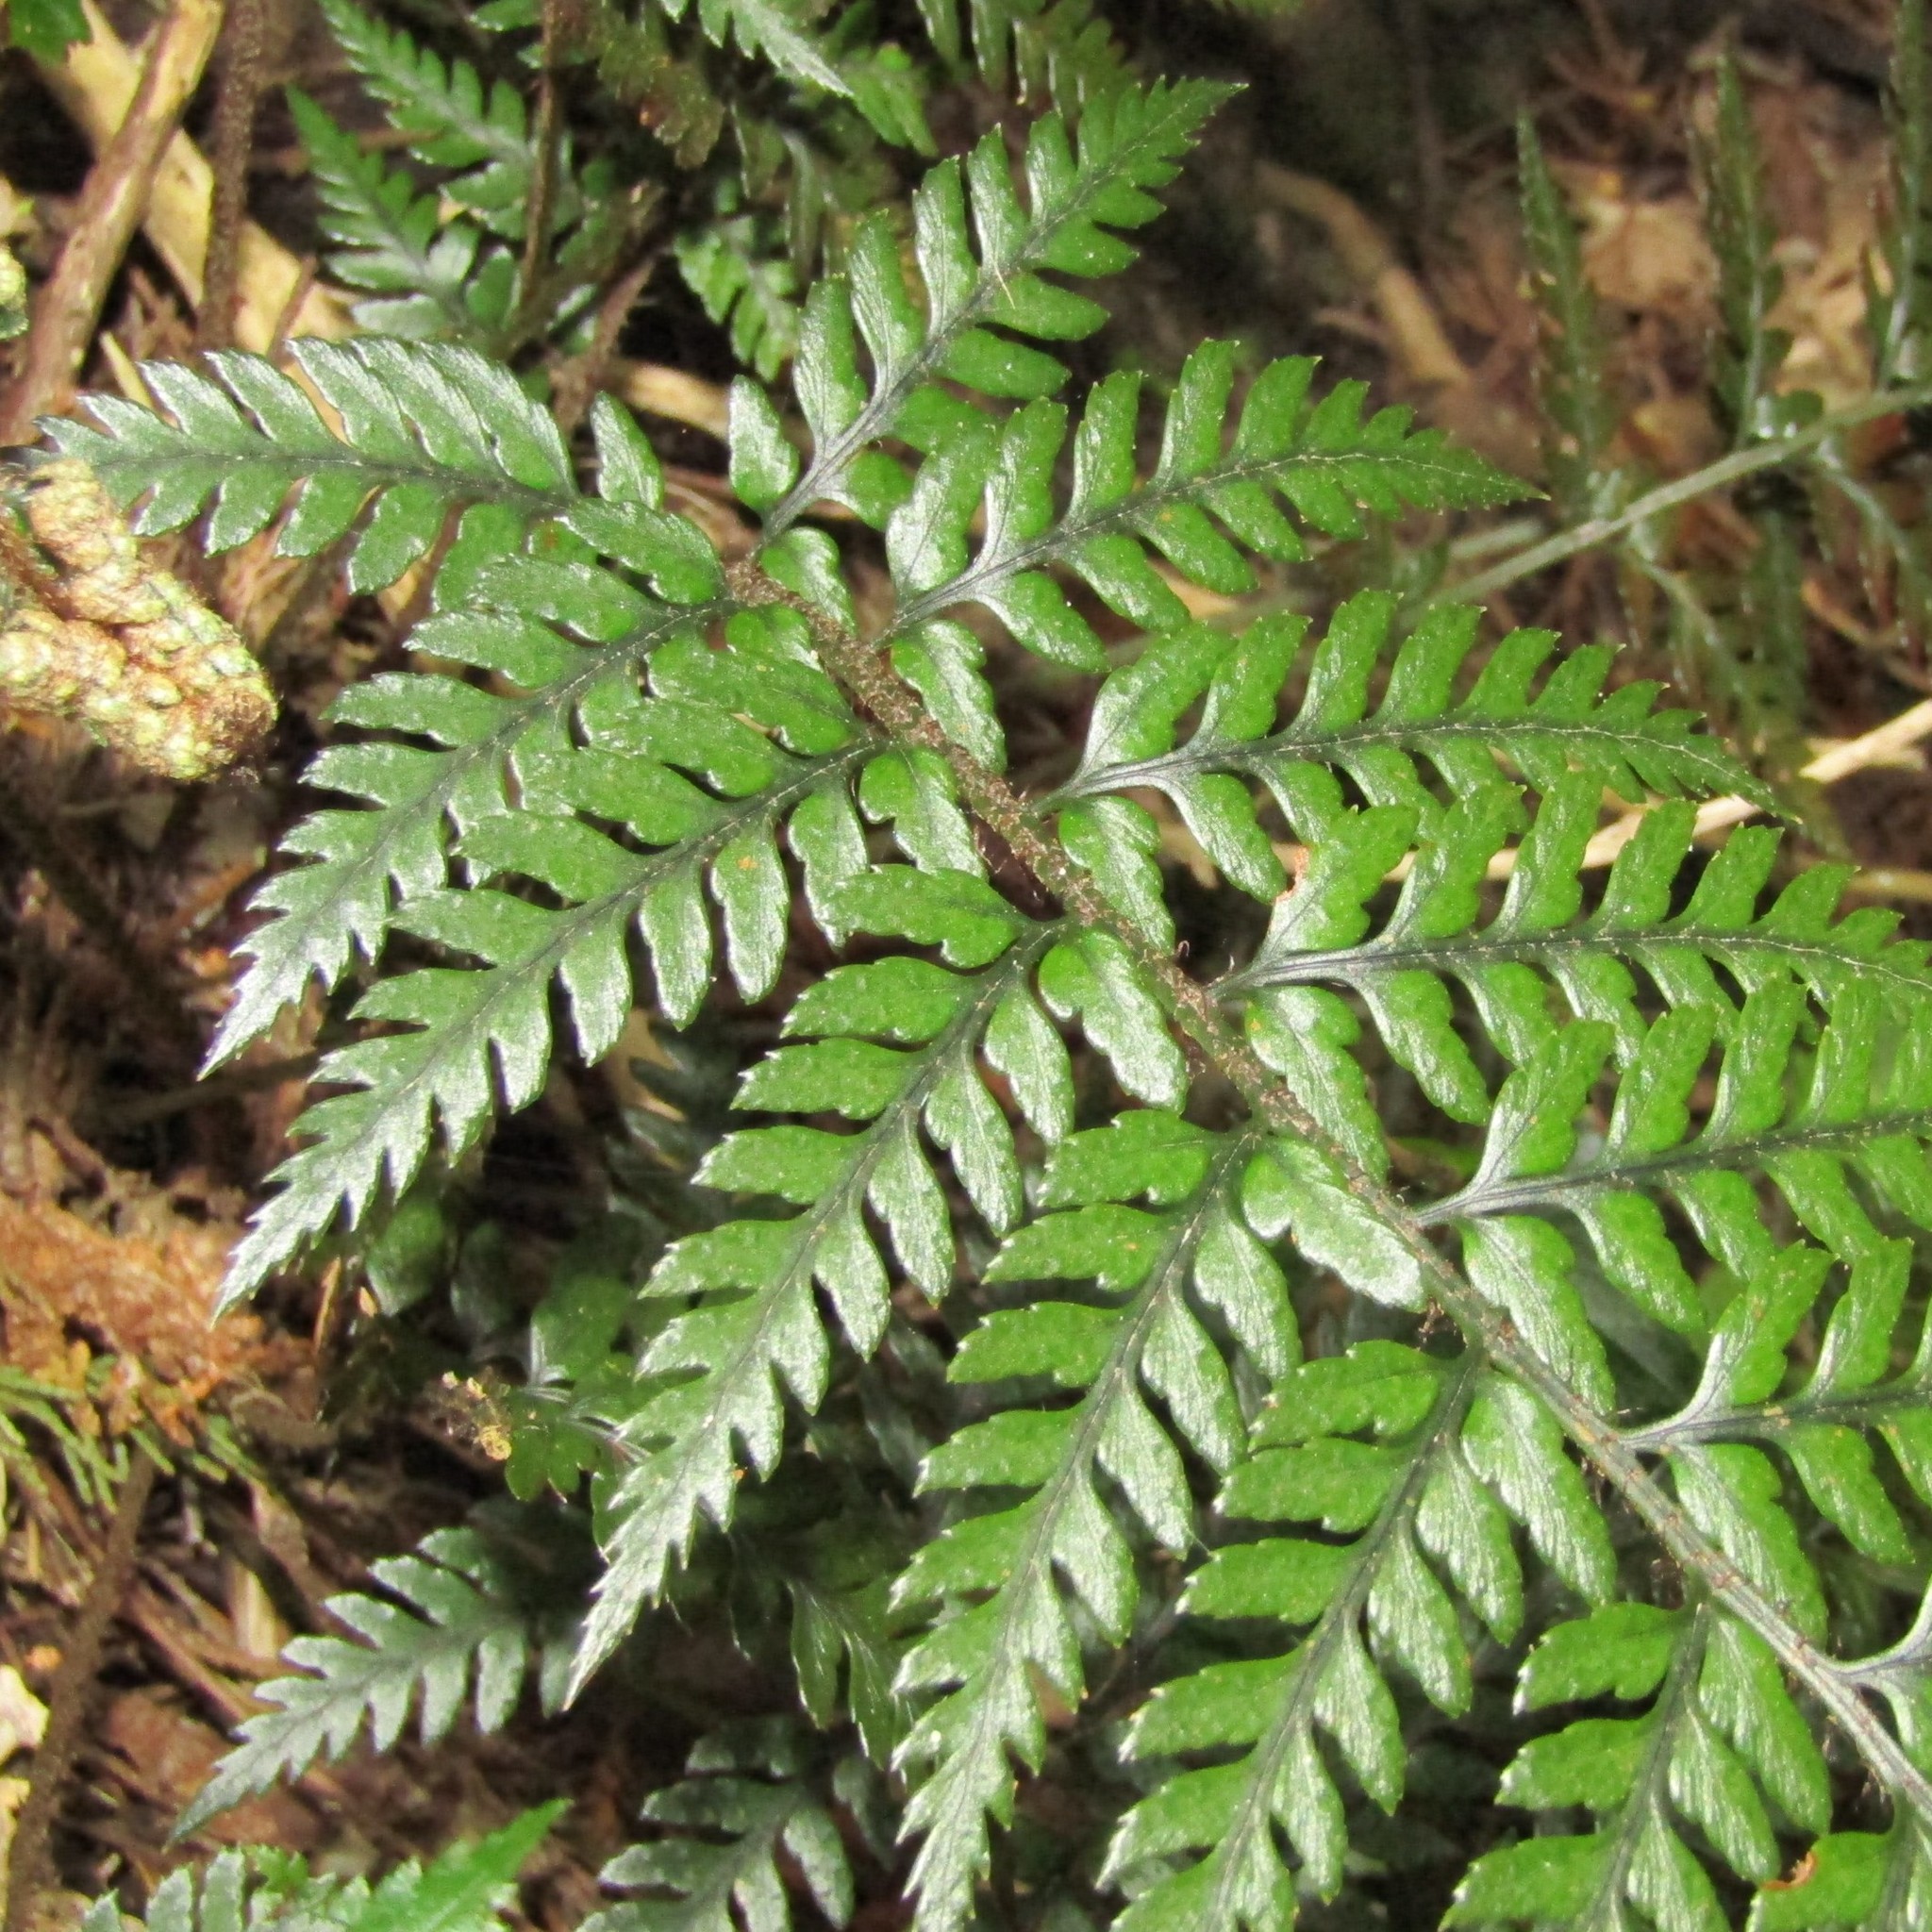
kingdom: Plantae
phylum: Tracheophyta
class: Polypodiopsida
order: Polypodiales
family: Dryopteridaceae
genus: Polystichum
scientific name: Polystichum neozelandicum
